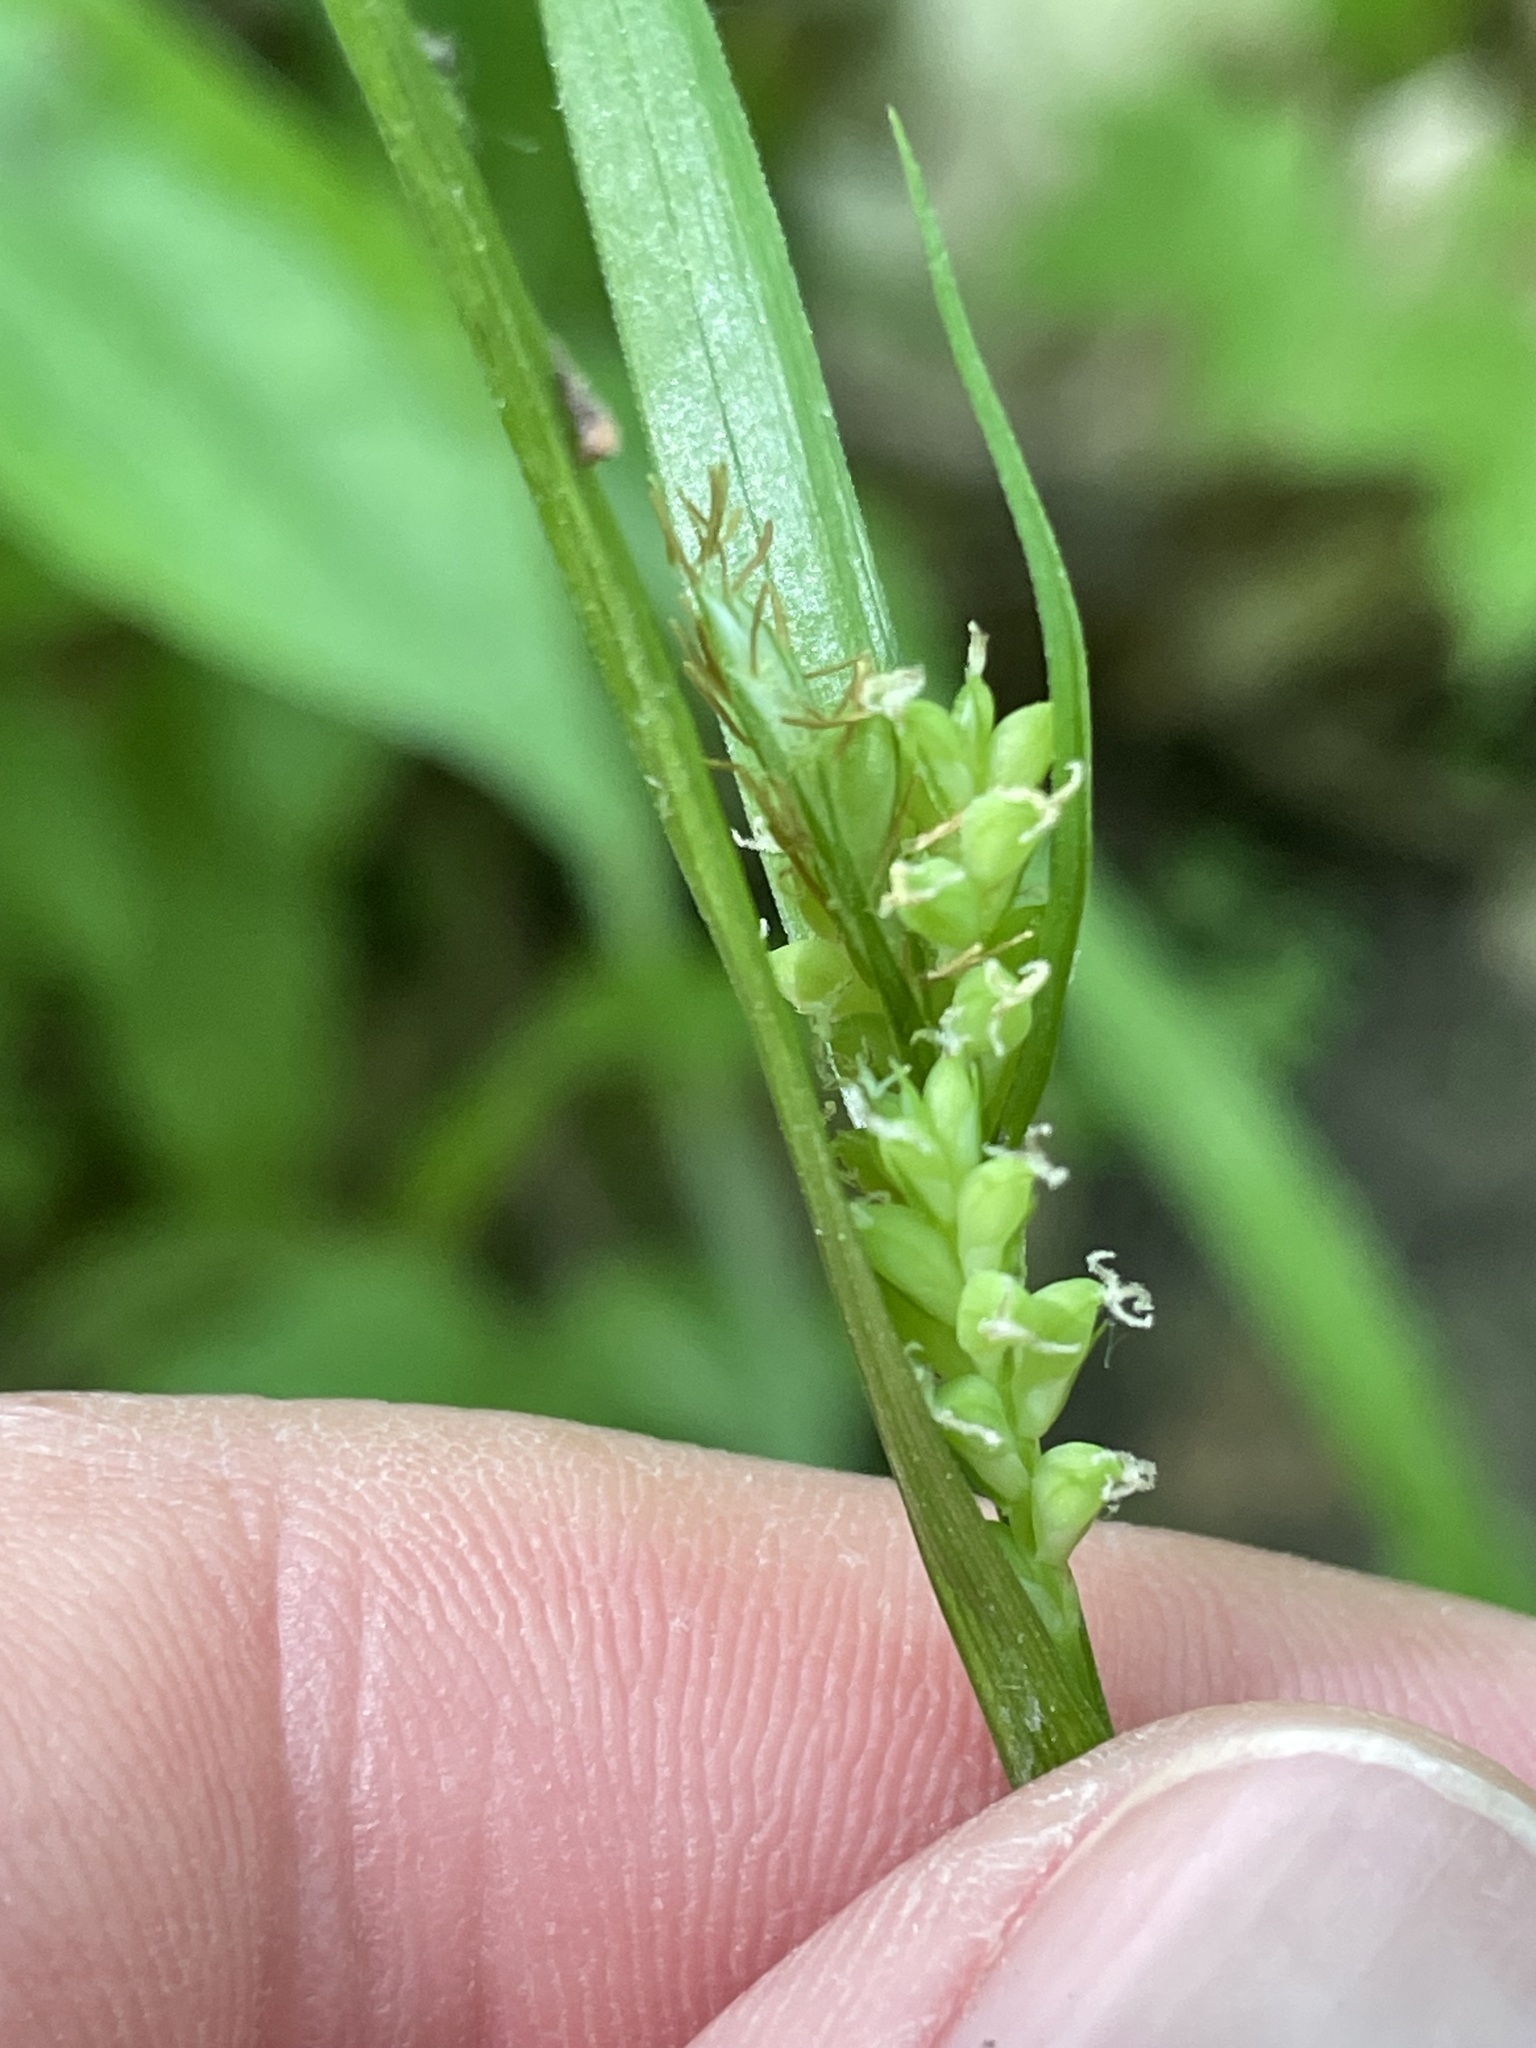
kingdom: Plantae
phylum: Tracheophyta
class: Liliopsida
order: Poales
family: Cyperaceae
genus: Carex
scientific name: Carex blanda
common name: Bland sedge
